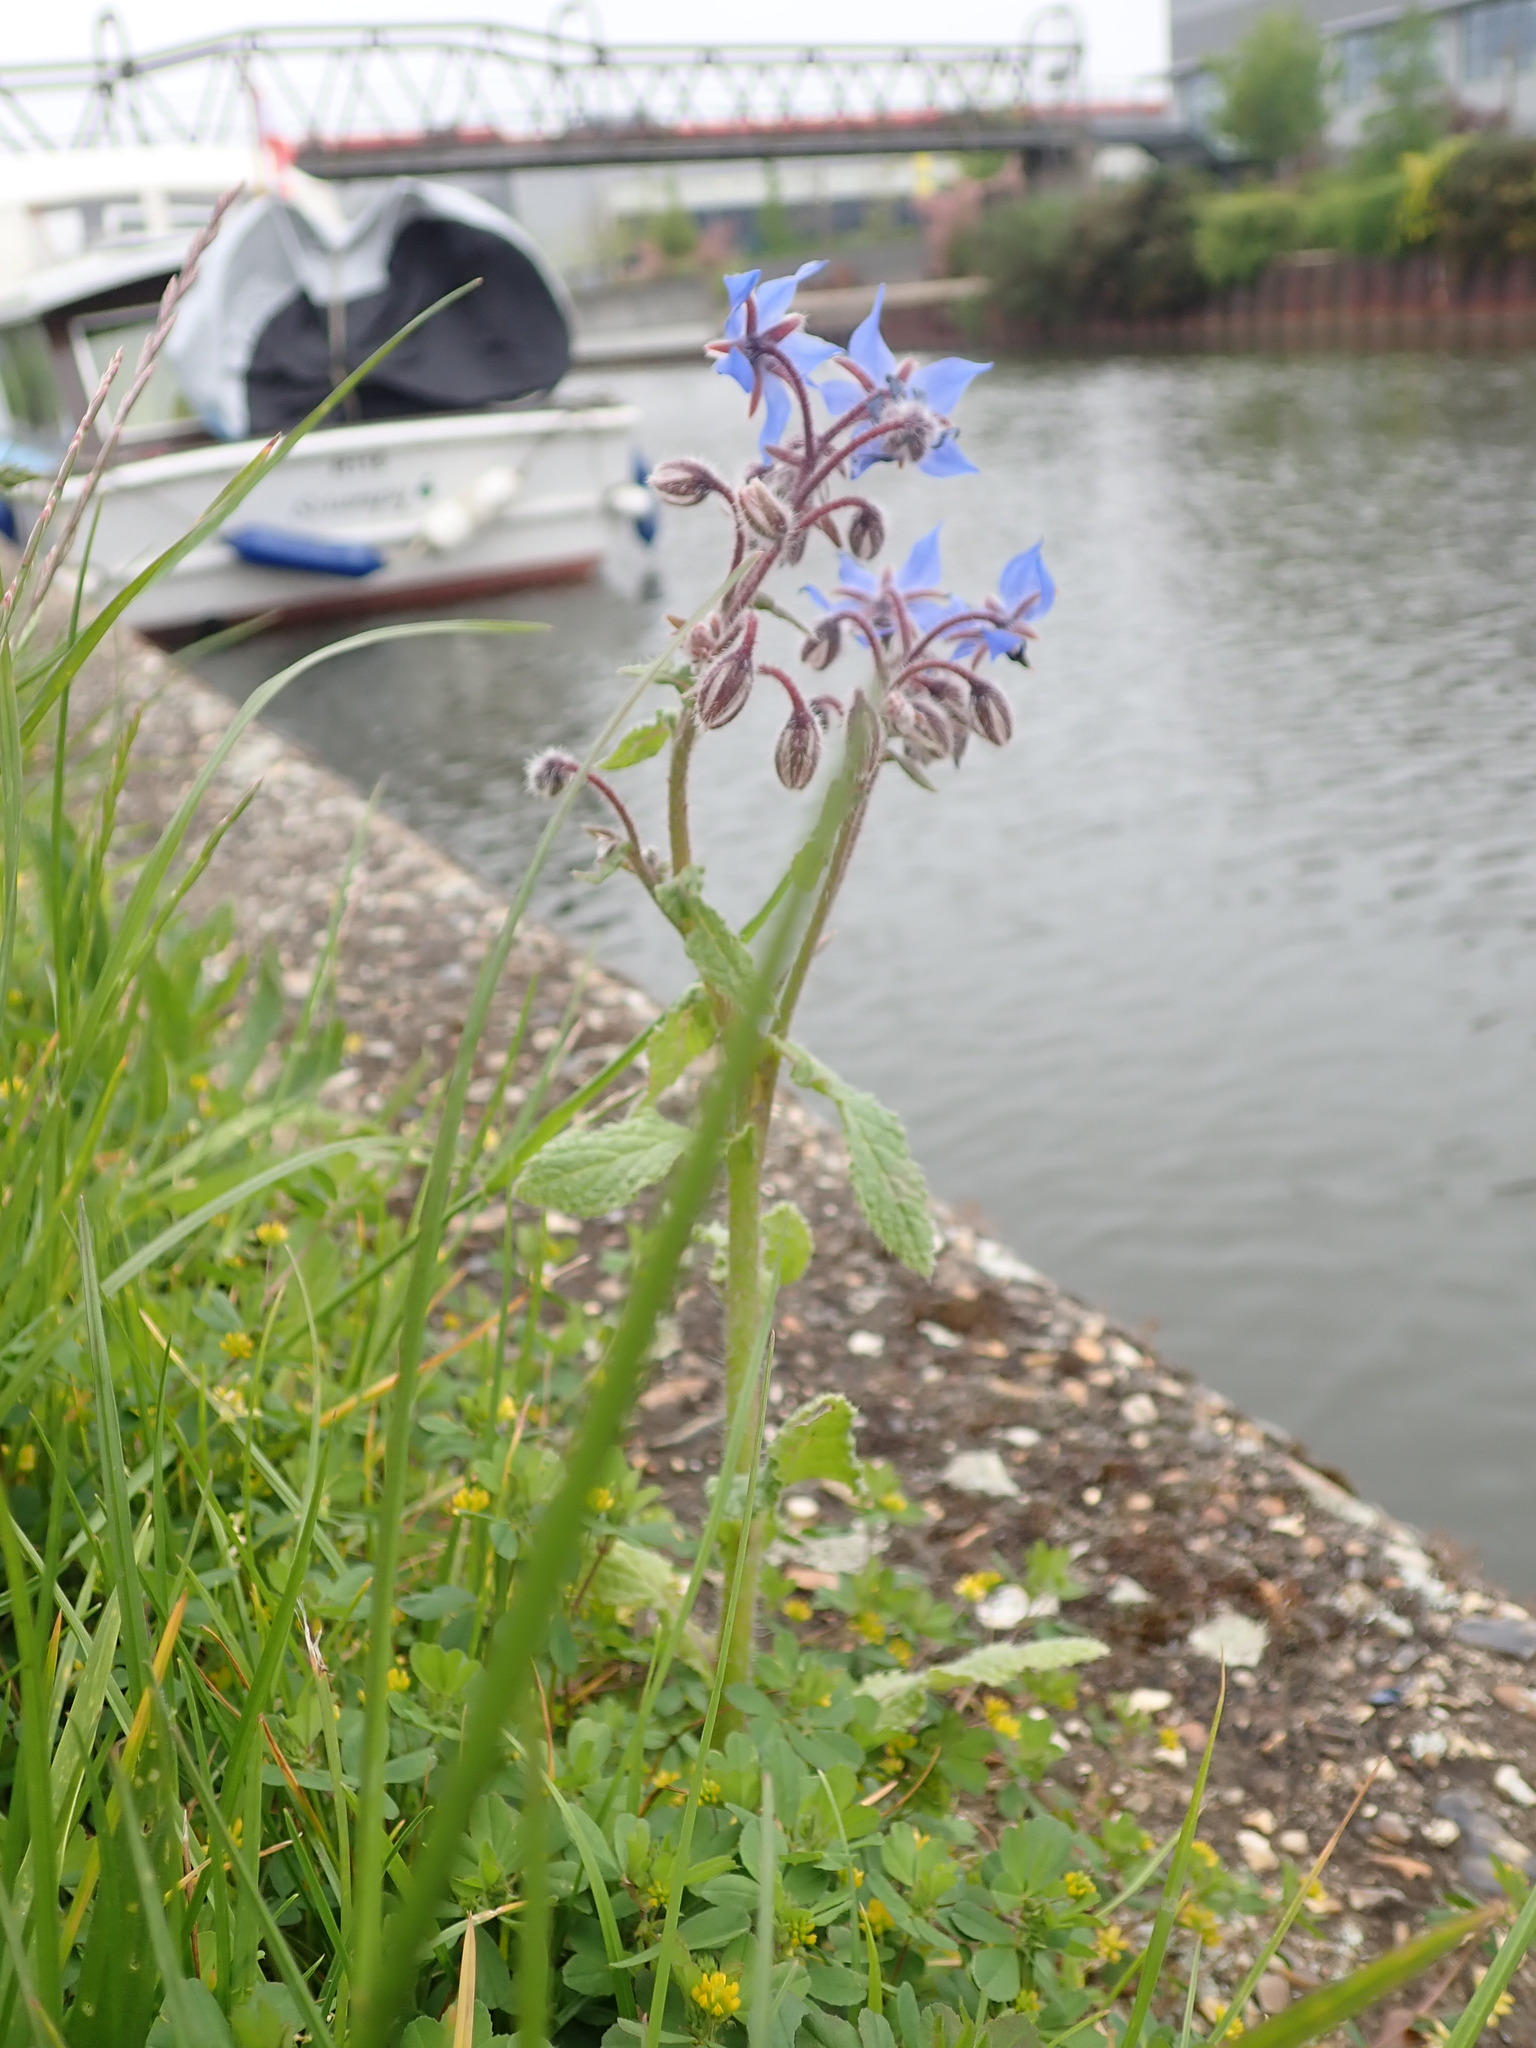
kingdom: Plantae
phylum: Tracheophyta
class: Magnoliopsida
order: Boraginales
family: Boraginaceae
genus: Borago
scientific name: Borago officinalis
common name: Borage
